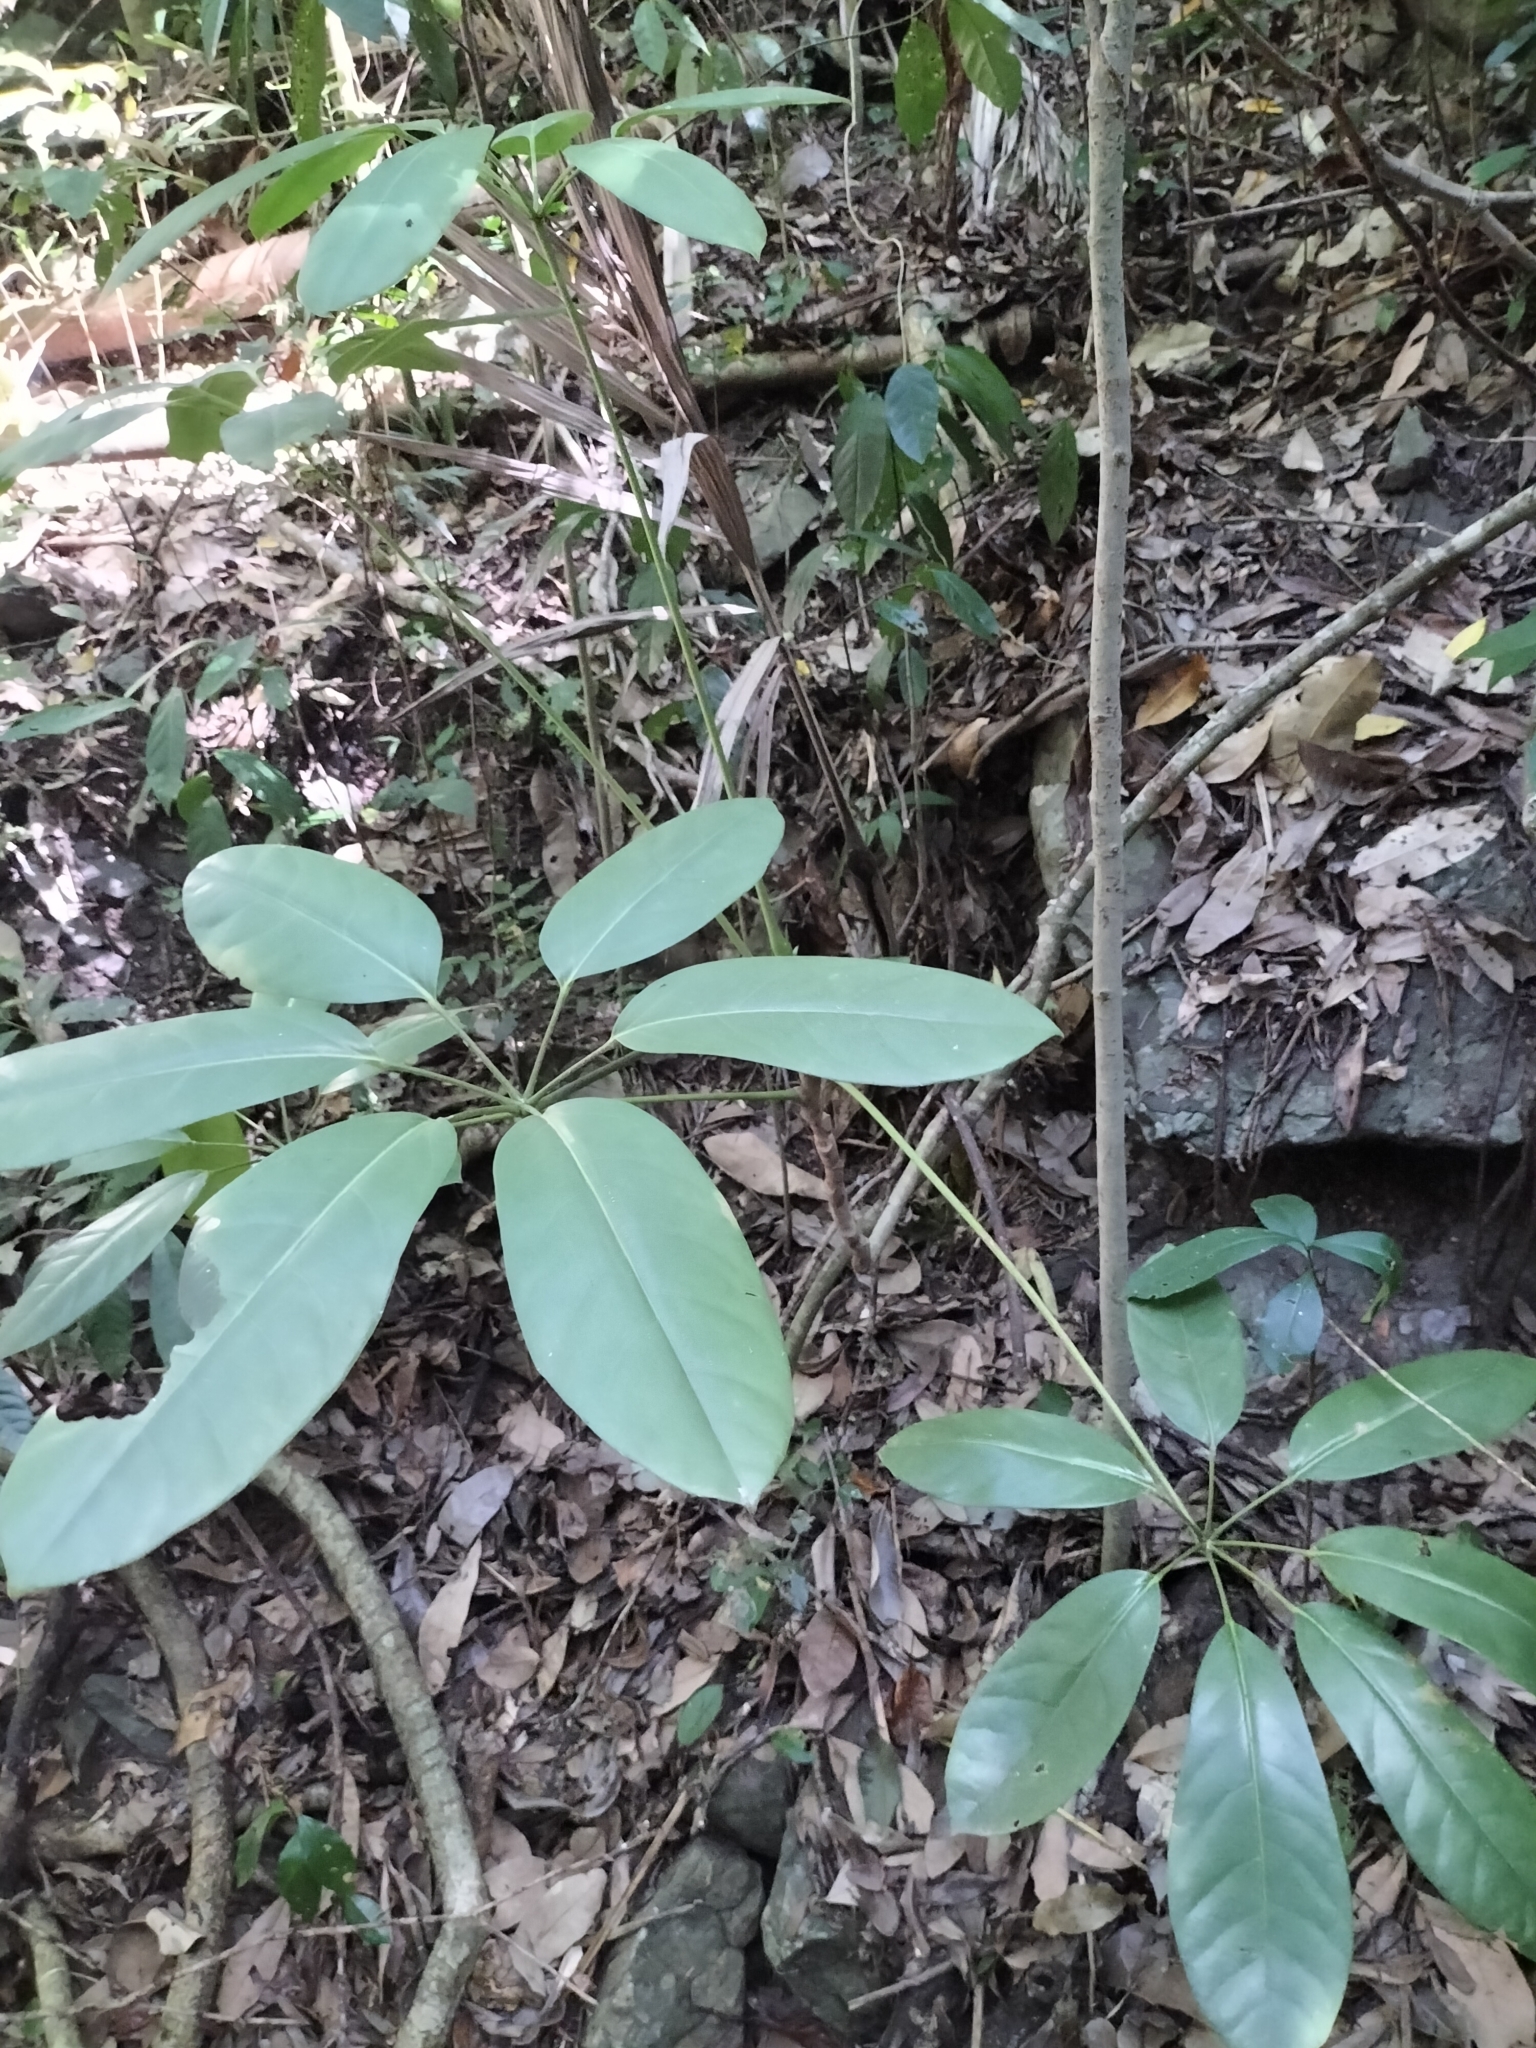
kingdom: Plantae
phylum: Tracheophyta
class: Magnoliopsida
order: Apiales
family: Araliaceae
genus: Heptapleurum
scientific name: Heptapleurum actinophyllum
